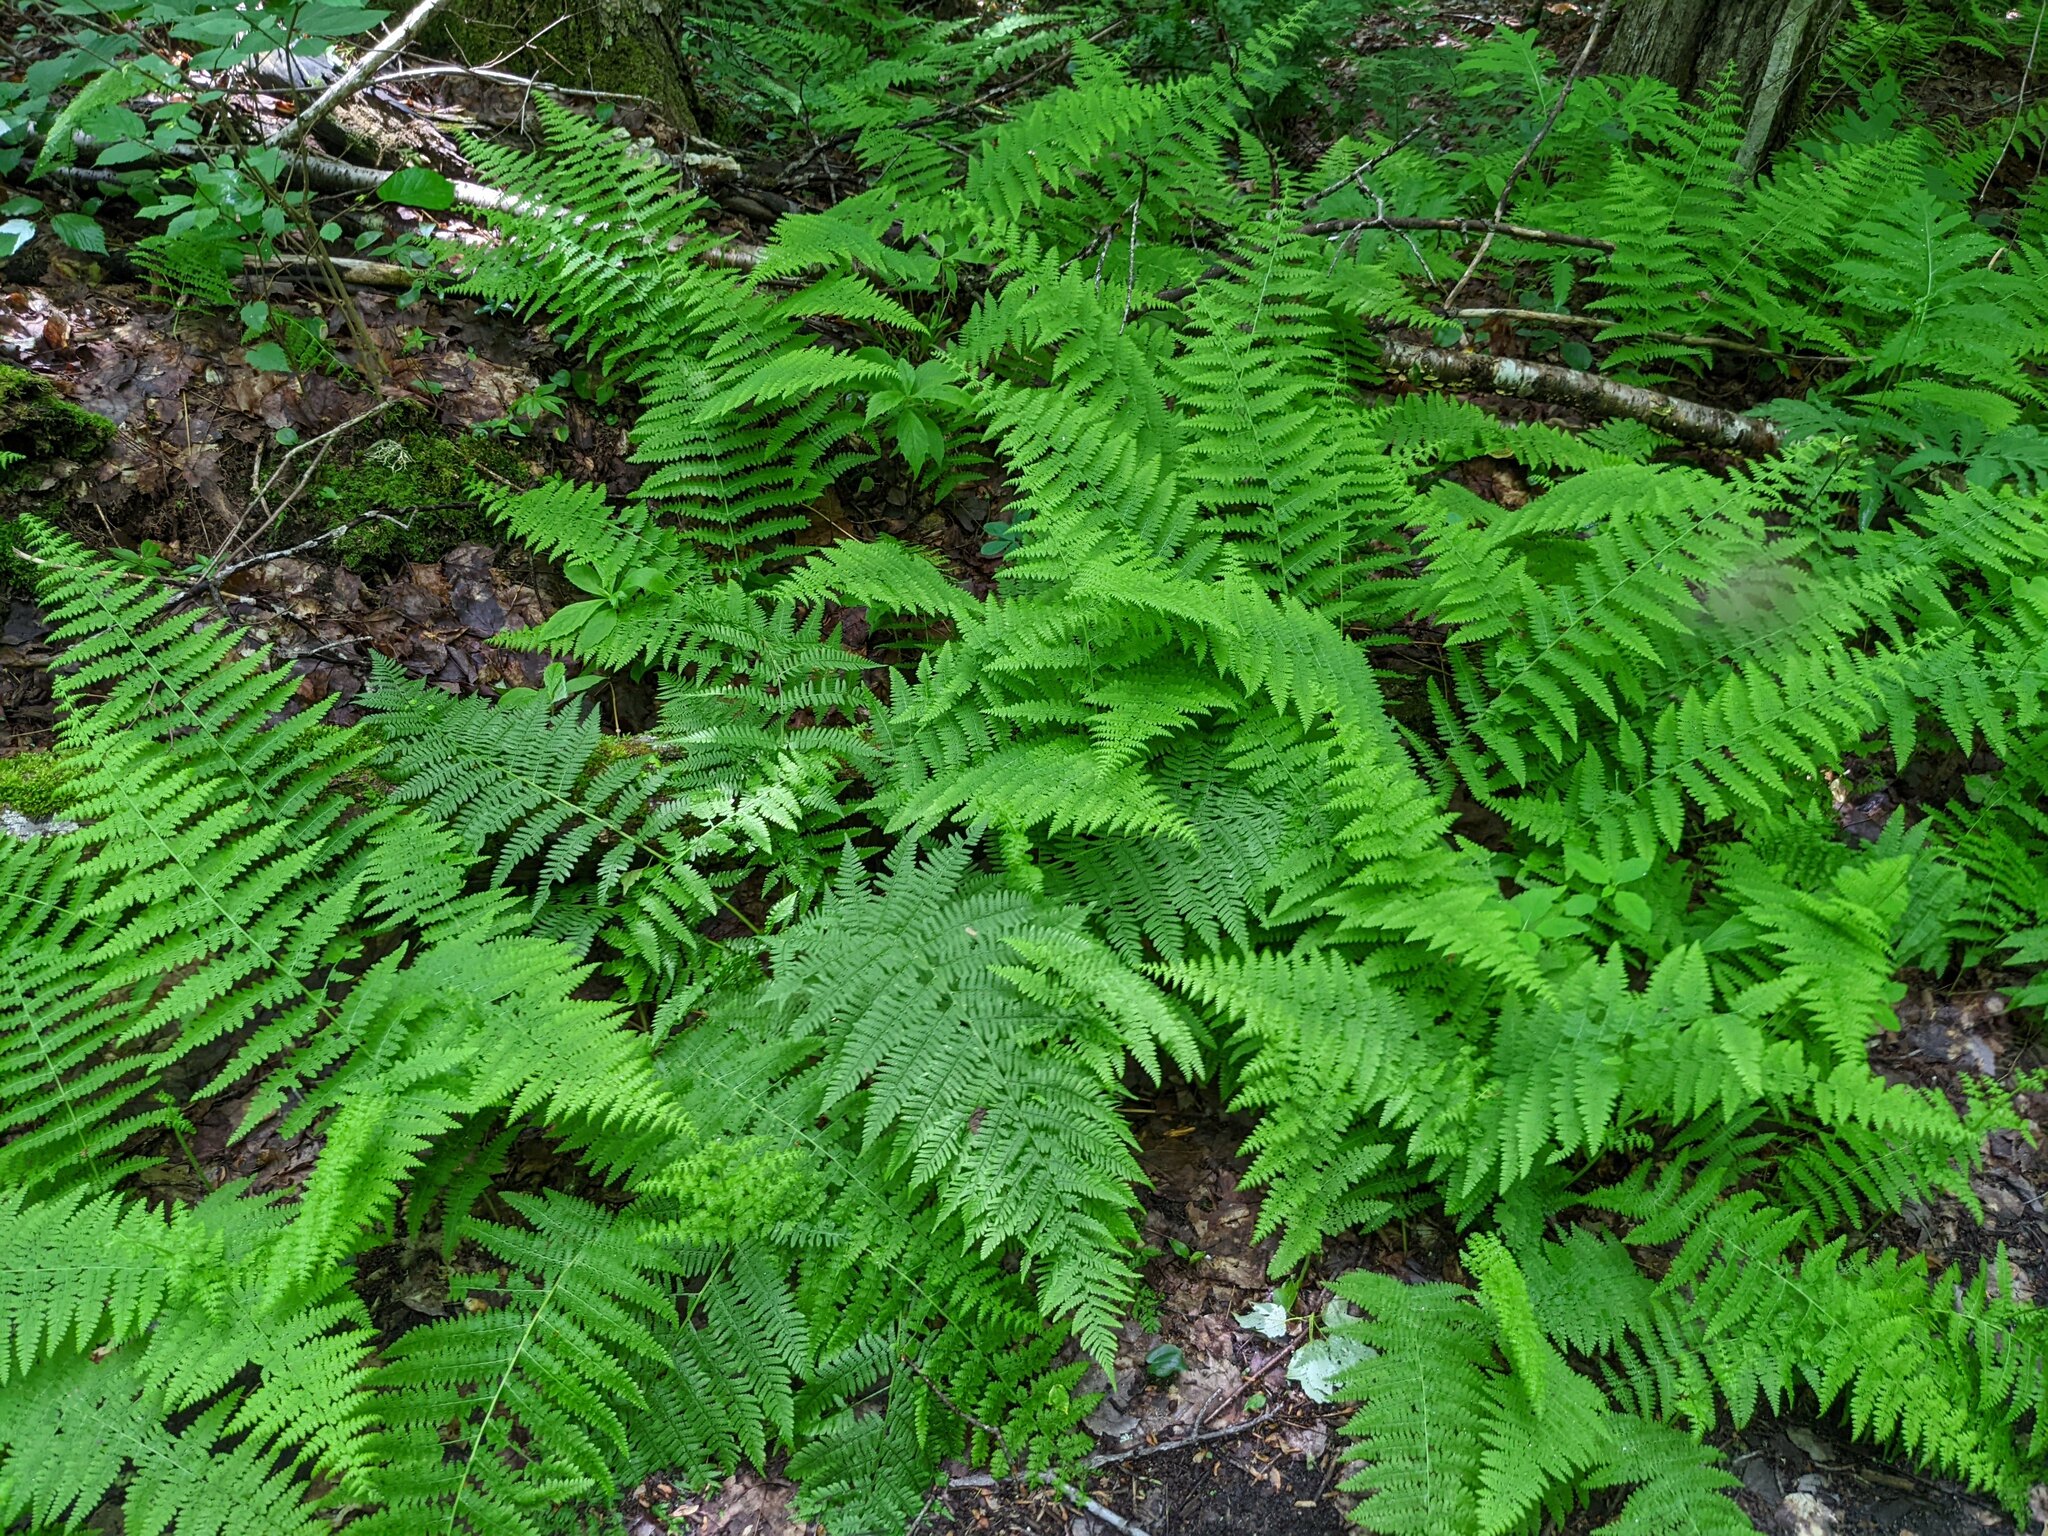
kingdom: Plantae
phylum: Tracheophyta
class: Polypodiopsida
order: Polypodiales
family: Dennstaedtiaceae
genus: Sitobolium
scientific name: Sitobolium punctilobum
